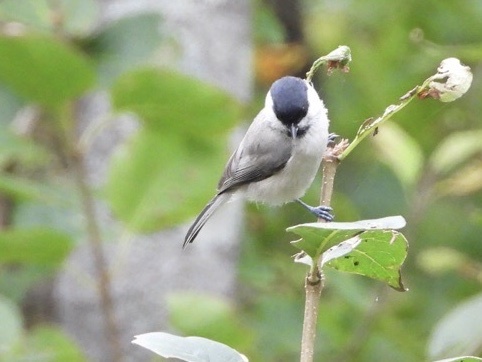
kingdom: Animalia
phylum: Chordata
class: Aves
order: Passeriformes
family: Paridae
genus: Poecile
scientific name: Poecile palustris
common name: Marsh tit
